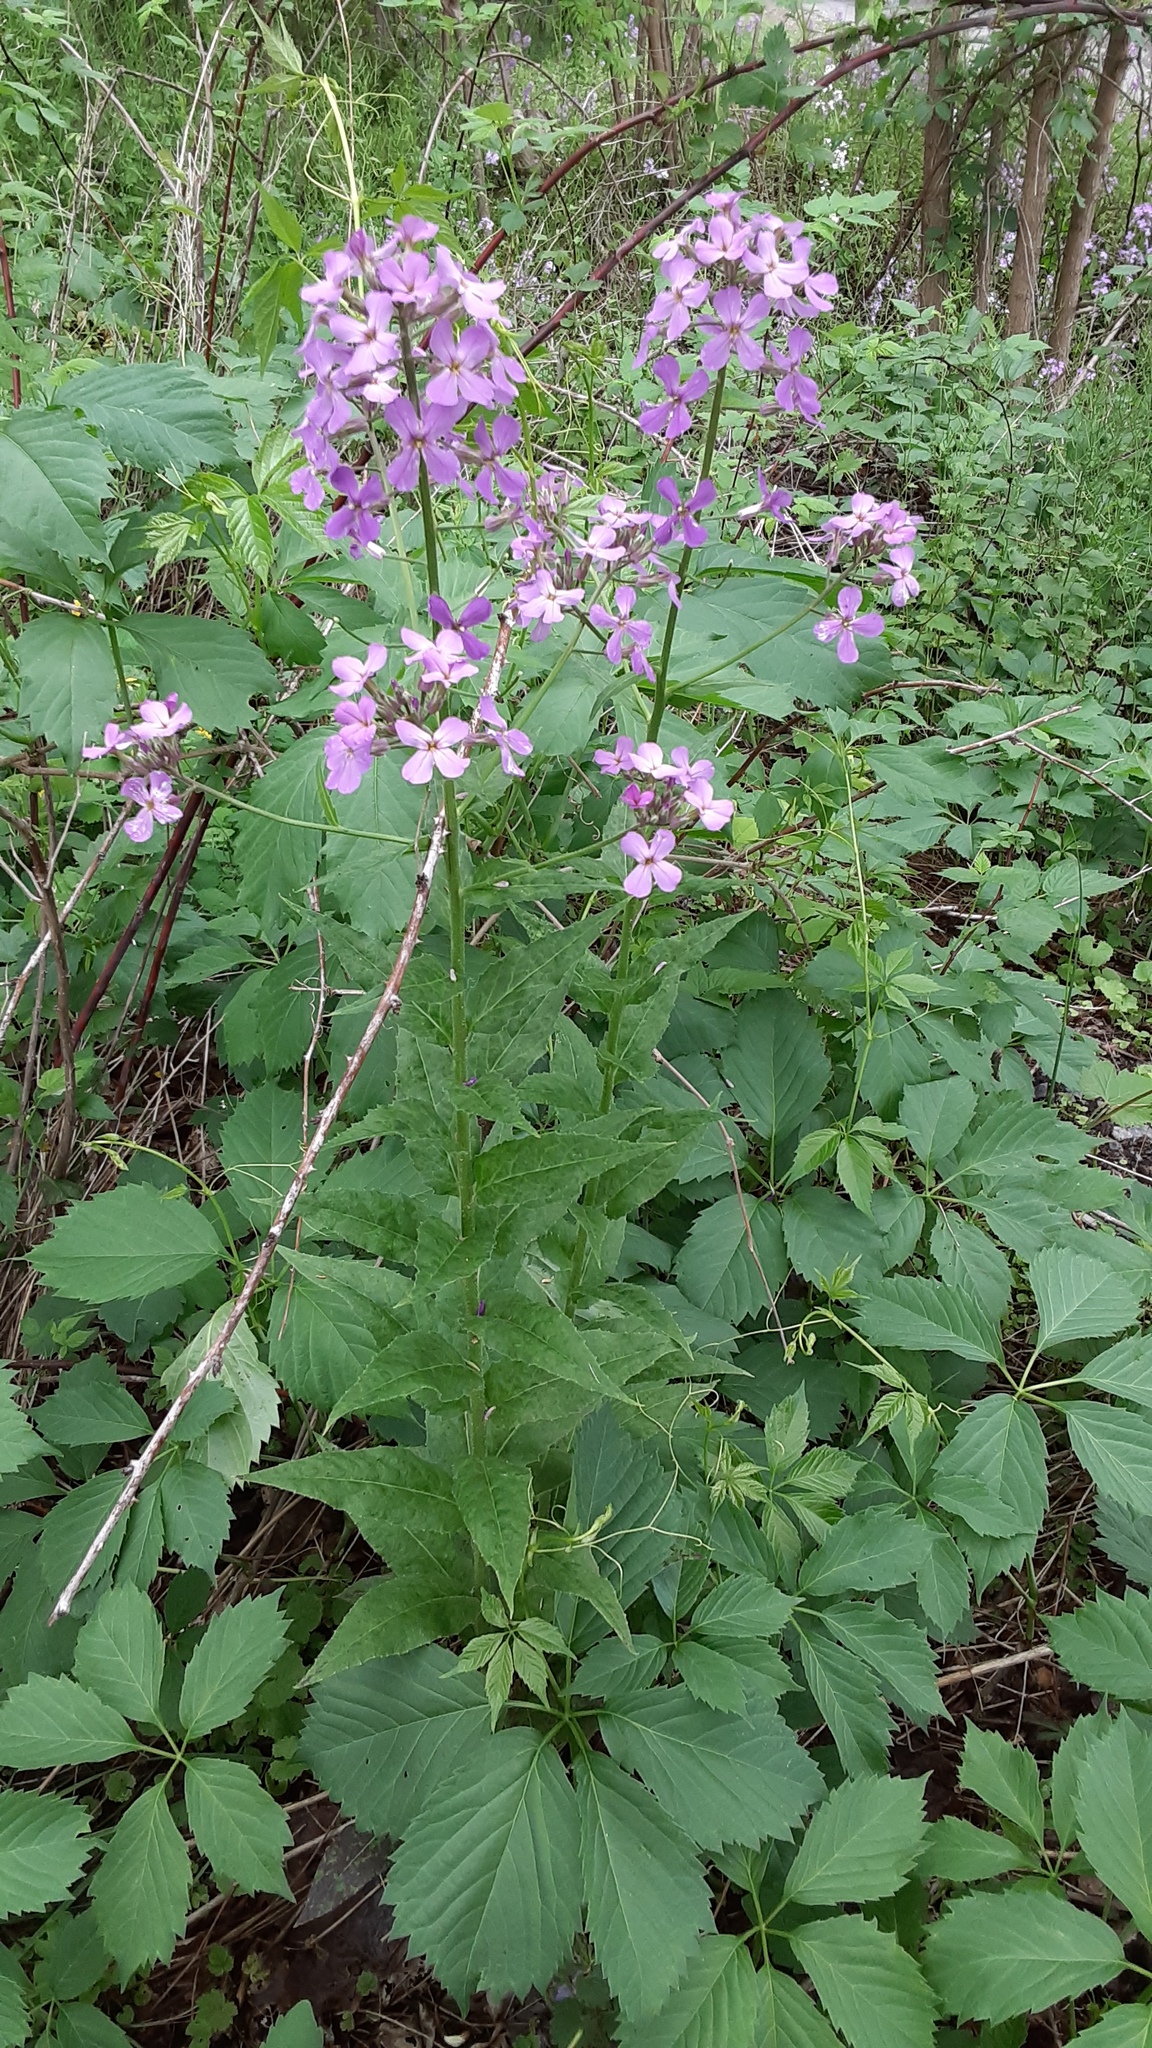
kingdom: Plantae
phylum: Tracheophyta
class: Magnoliopsida
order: Brassicales
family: Brassicaceae
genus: Hesperis
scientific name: Hesperis matronalis
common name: Dame's-violet
